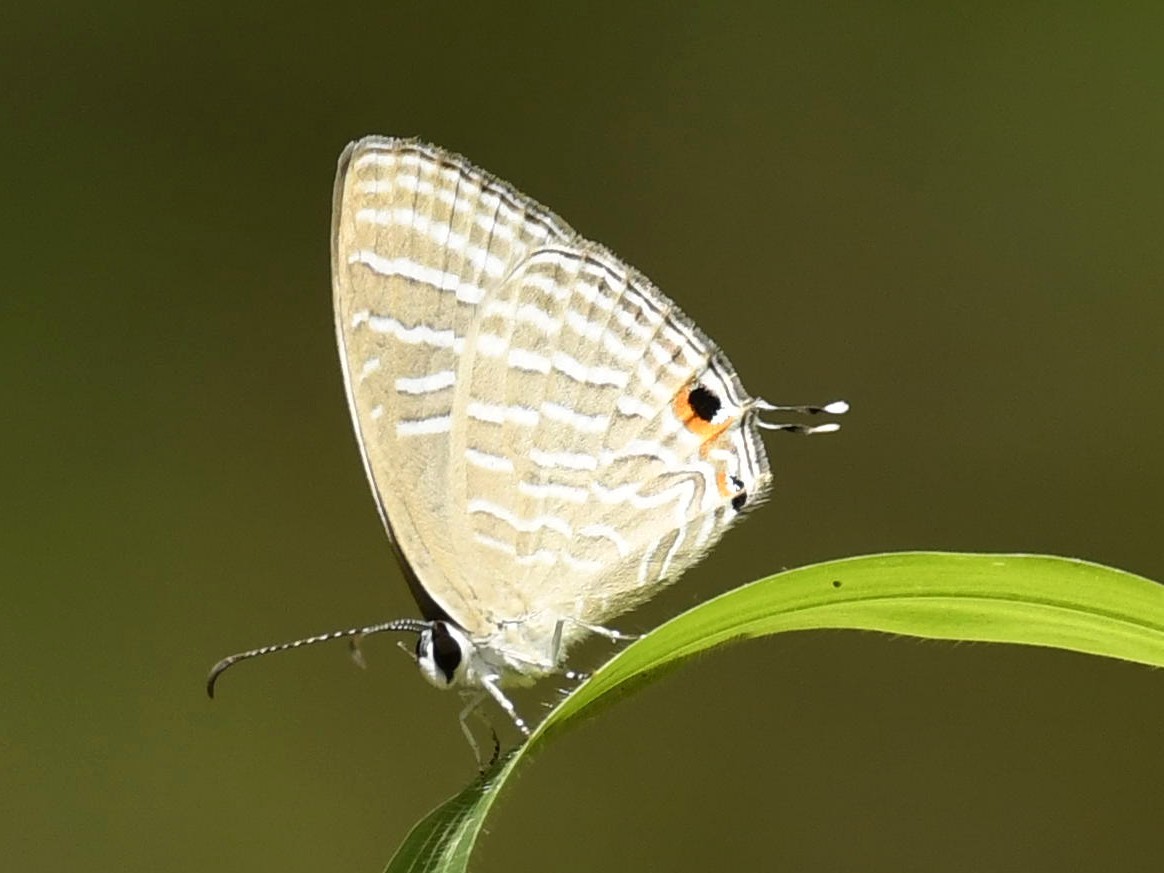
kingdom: Animalia
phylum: Arthropoda
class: Insecta
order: Lepidoptera
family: Lycaenidae
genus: Jamides
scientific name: Jamides celeno
